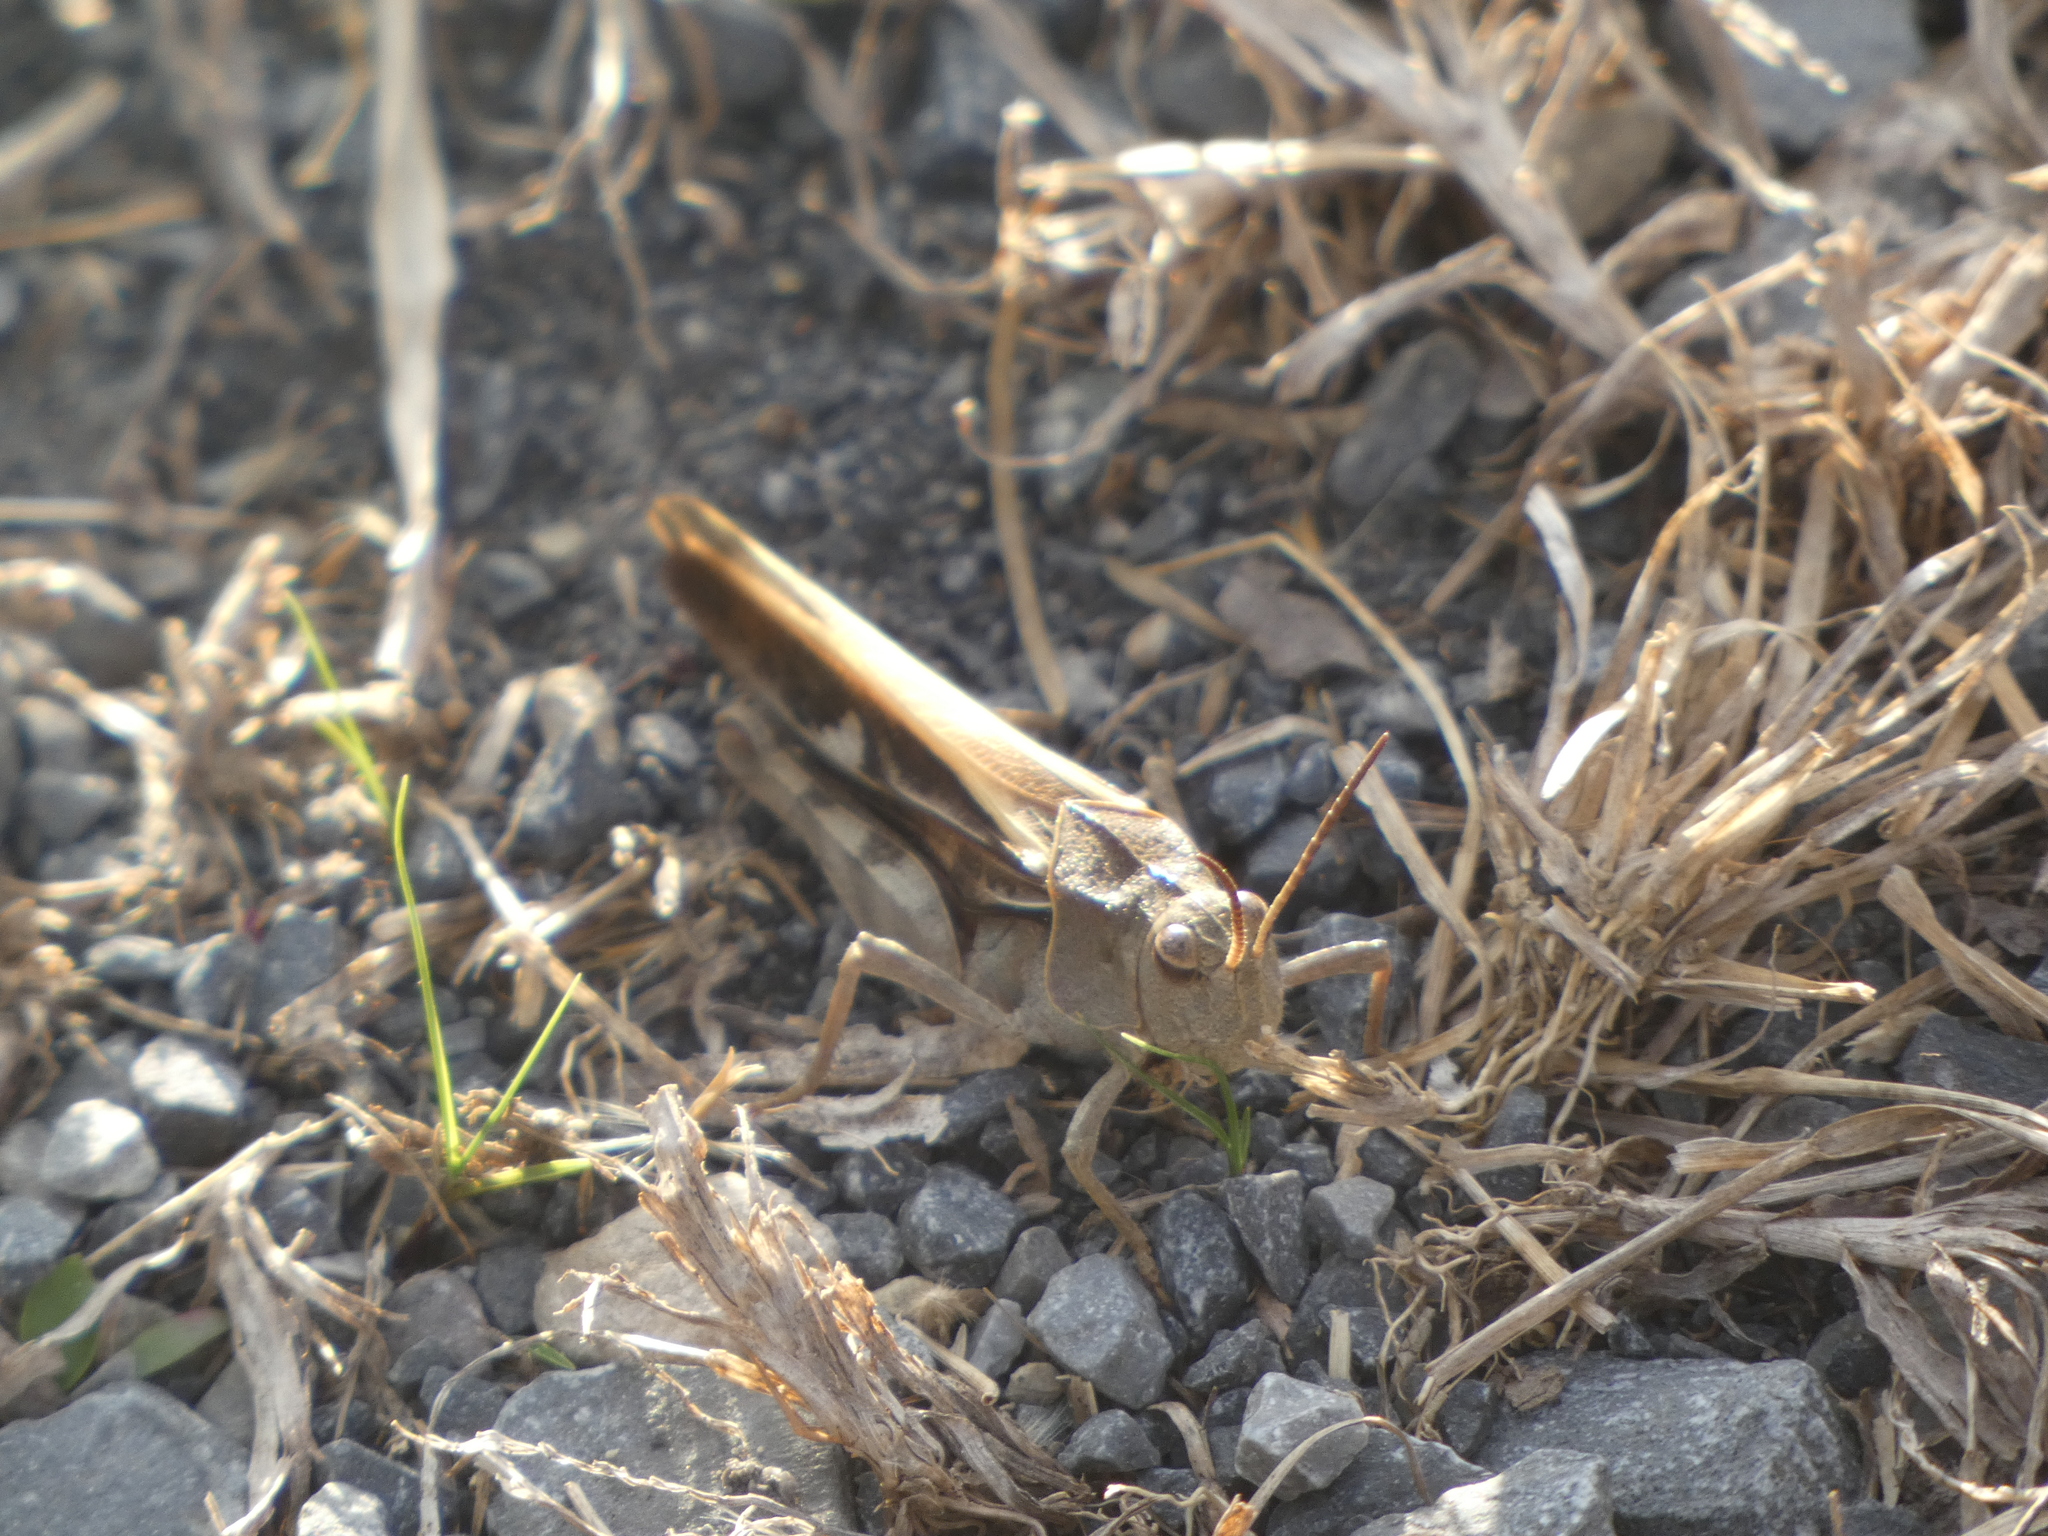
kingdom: Animalia
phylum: Arthropoda
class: Insecta
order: Orthoptera
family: Acrididae
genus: Pardalophora
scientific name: Pardalophora apiculata
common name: Coral-winged locust
